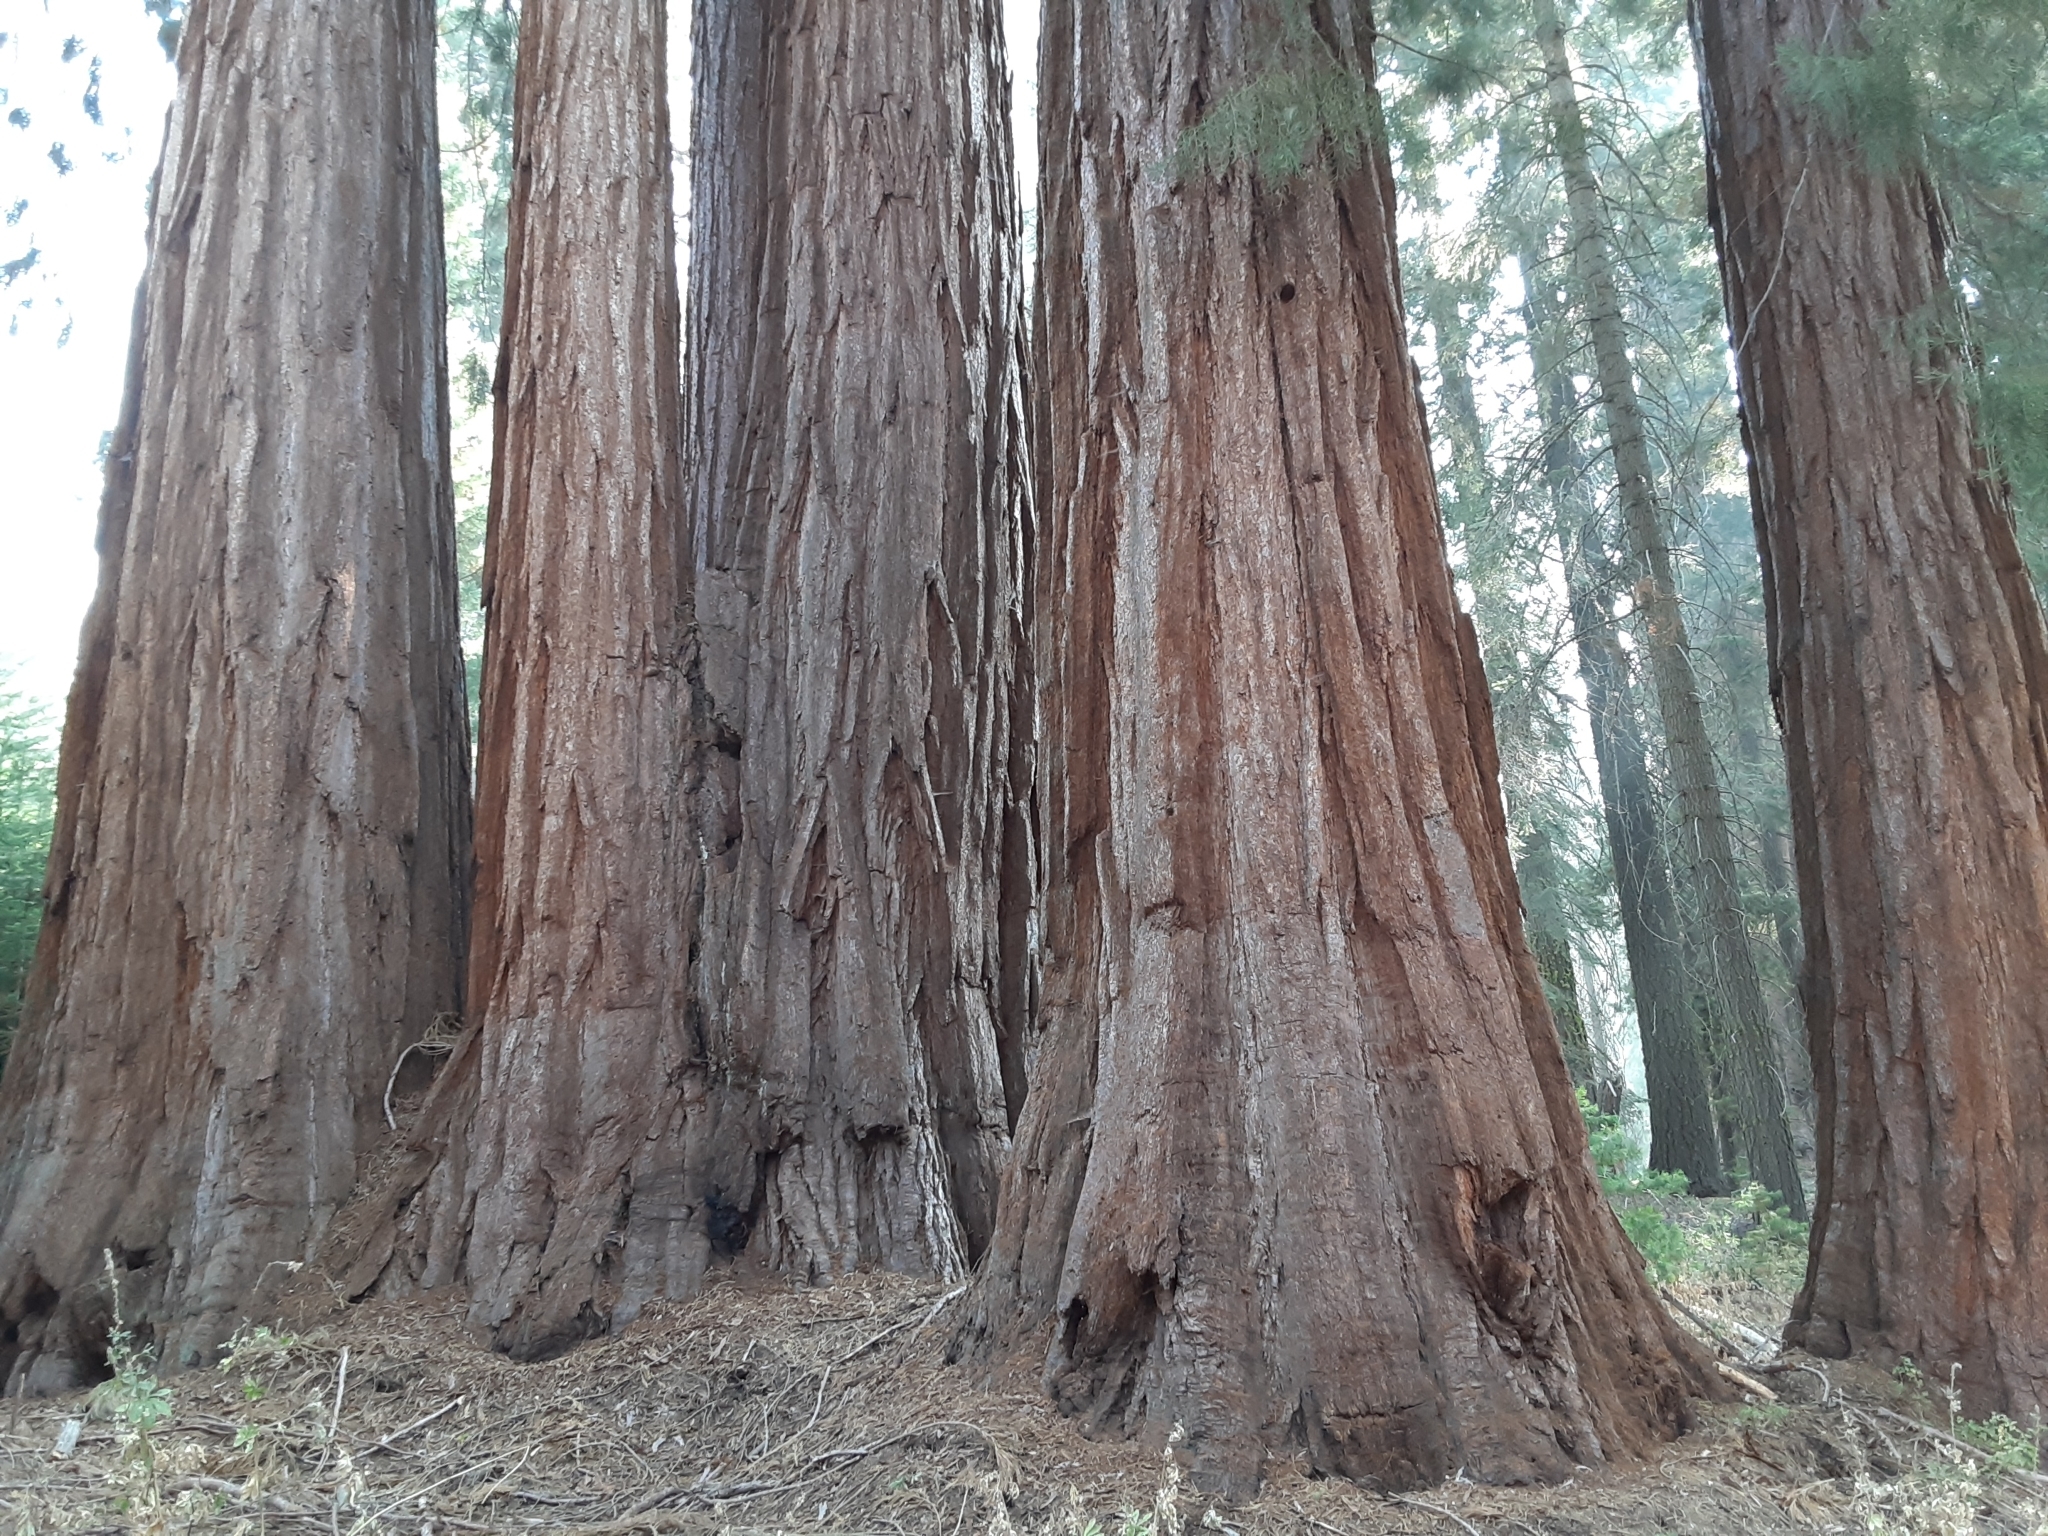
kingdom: Plantae
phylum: Tracheophyta
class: Pinopsida
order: Pinales
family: Cupressaceae
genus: Sequoiadendron
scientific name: Sequoiadendron giganteum
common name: Wellingtonia
